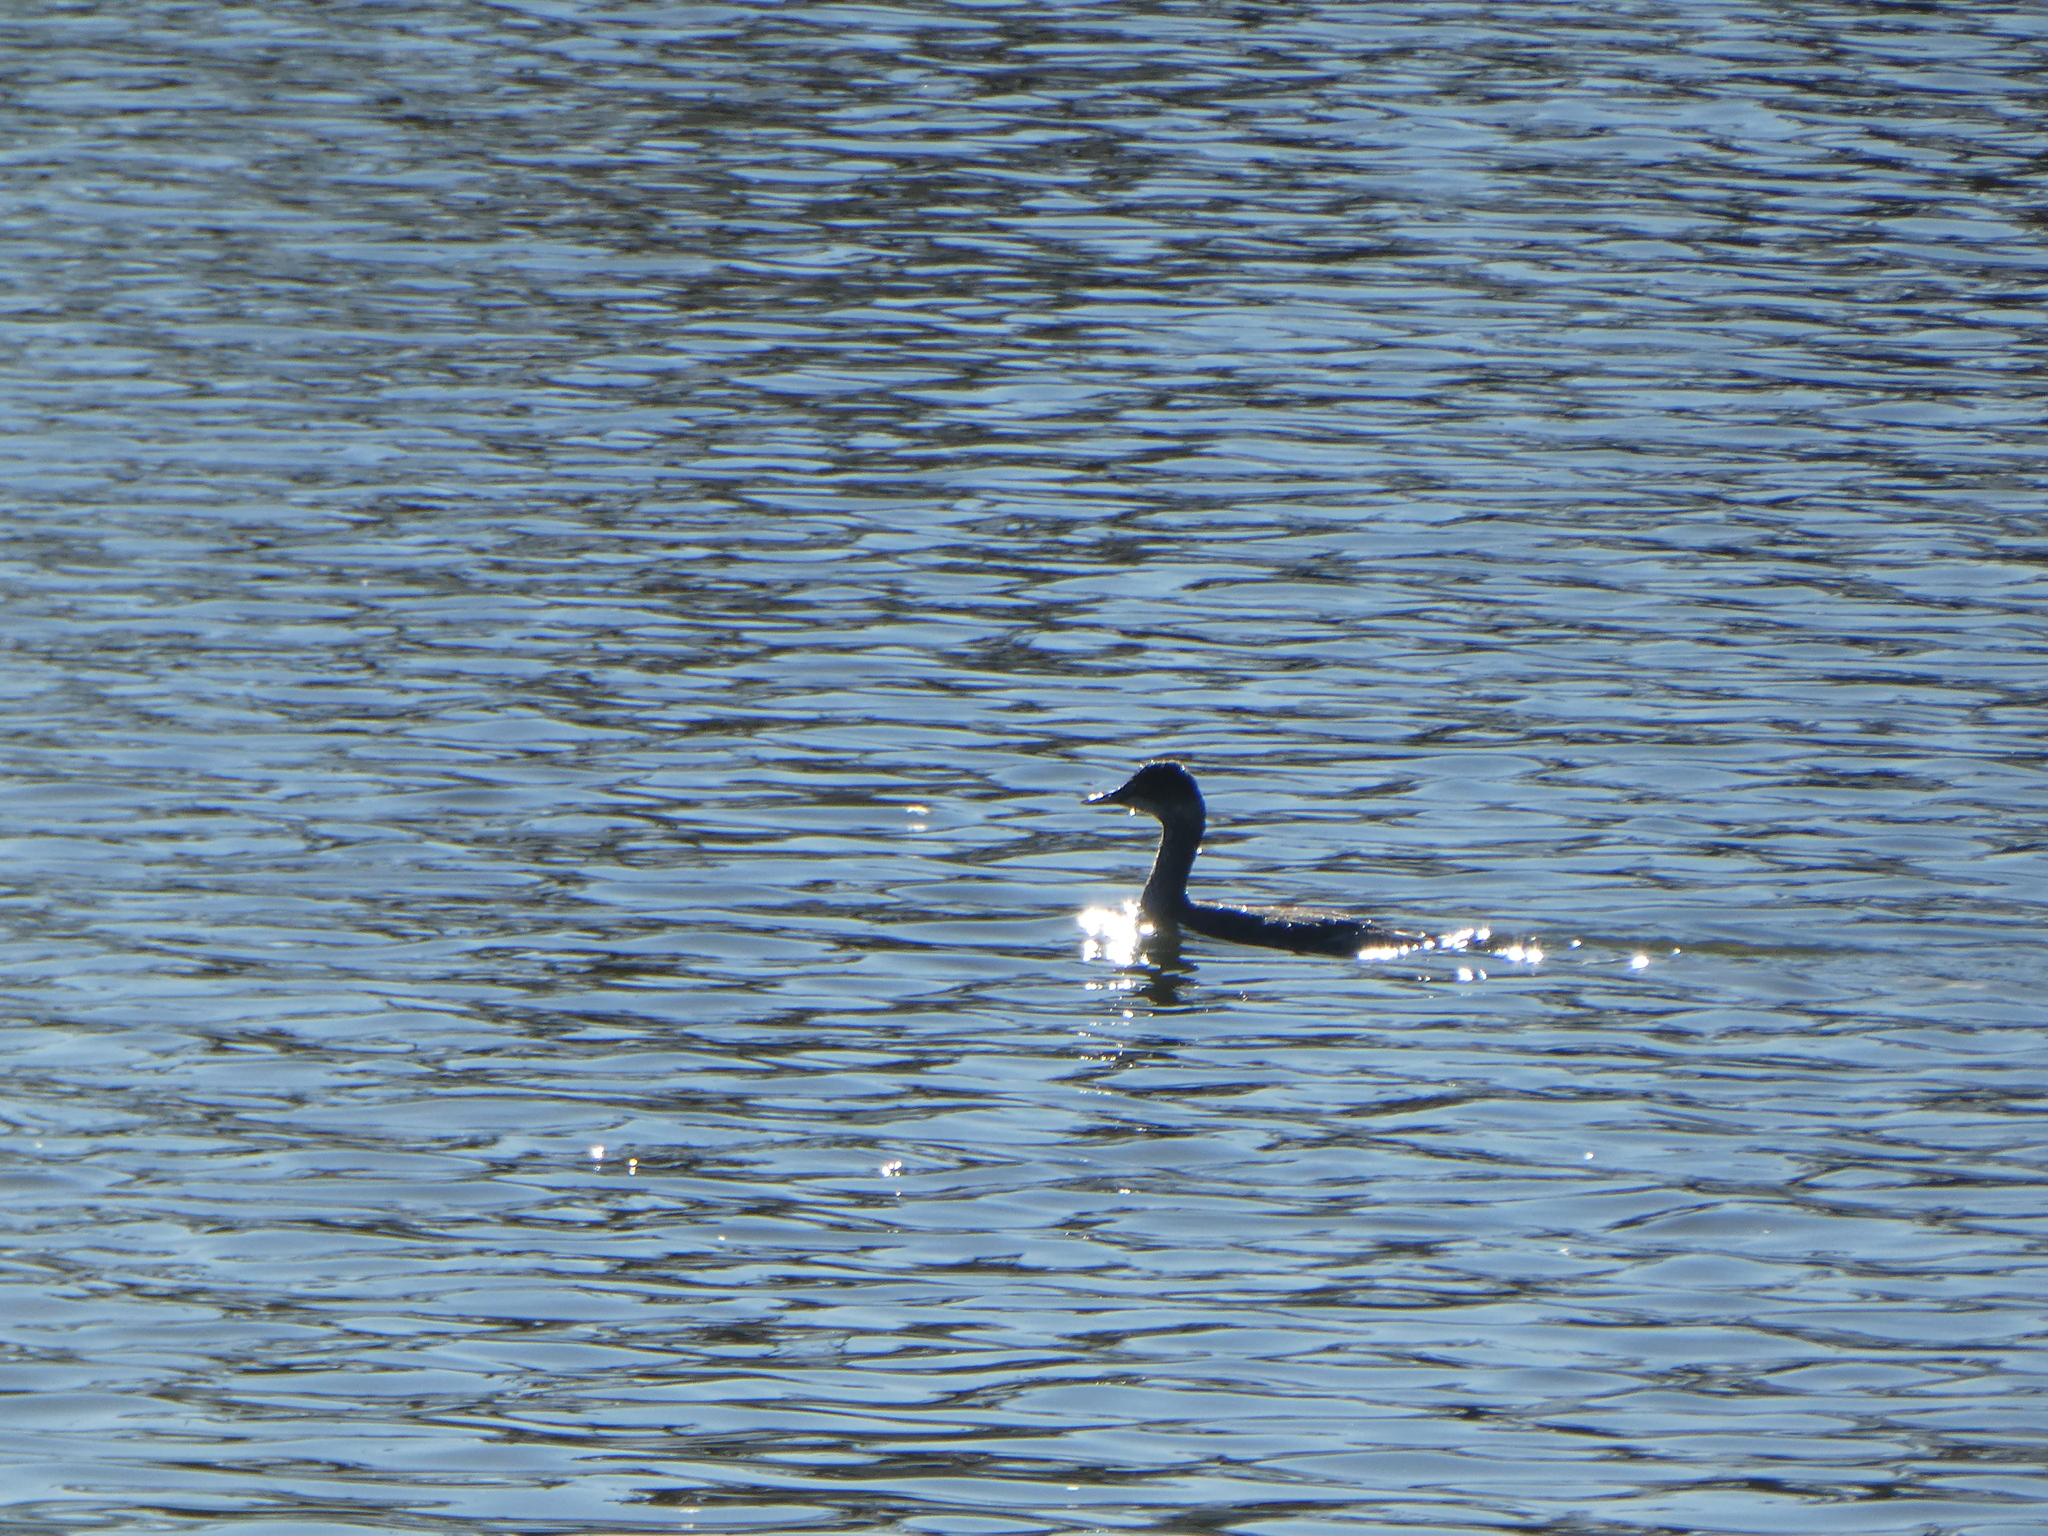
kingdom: Animalia
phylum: Chordata
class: Aves
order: Podicipediformes
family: Podicipedidae
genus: Podiceps
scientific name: Podiceps nigricollis
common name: Black-necked grebe
